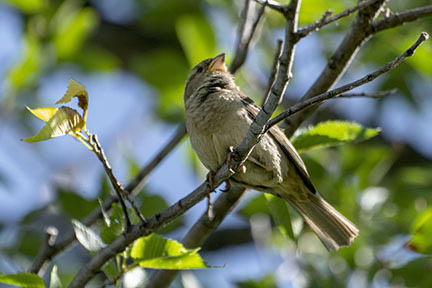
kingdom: Animalia
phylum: Chordata
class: Aves
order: Passeriformes
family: Passeridae
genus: Passer
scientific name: Passer domesticus
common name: House sparrow
